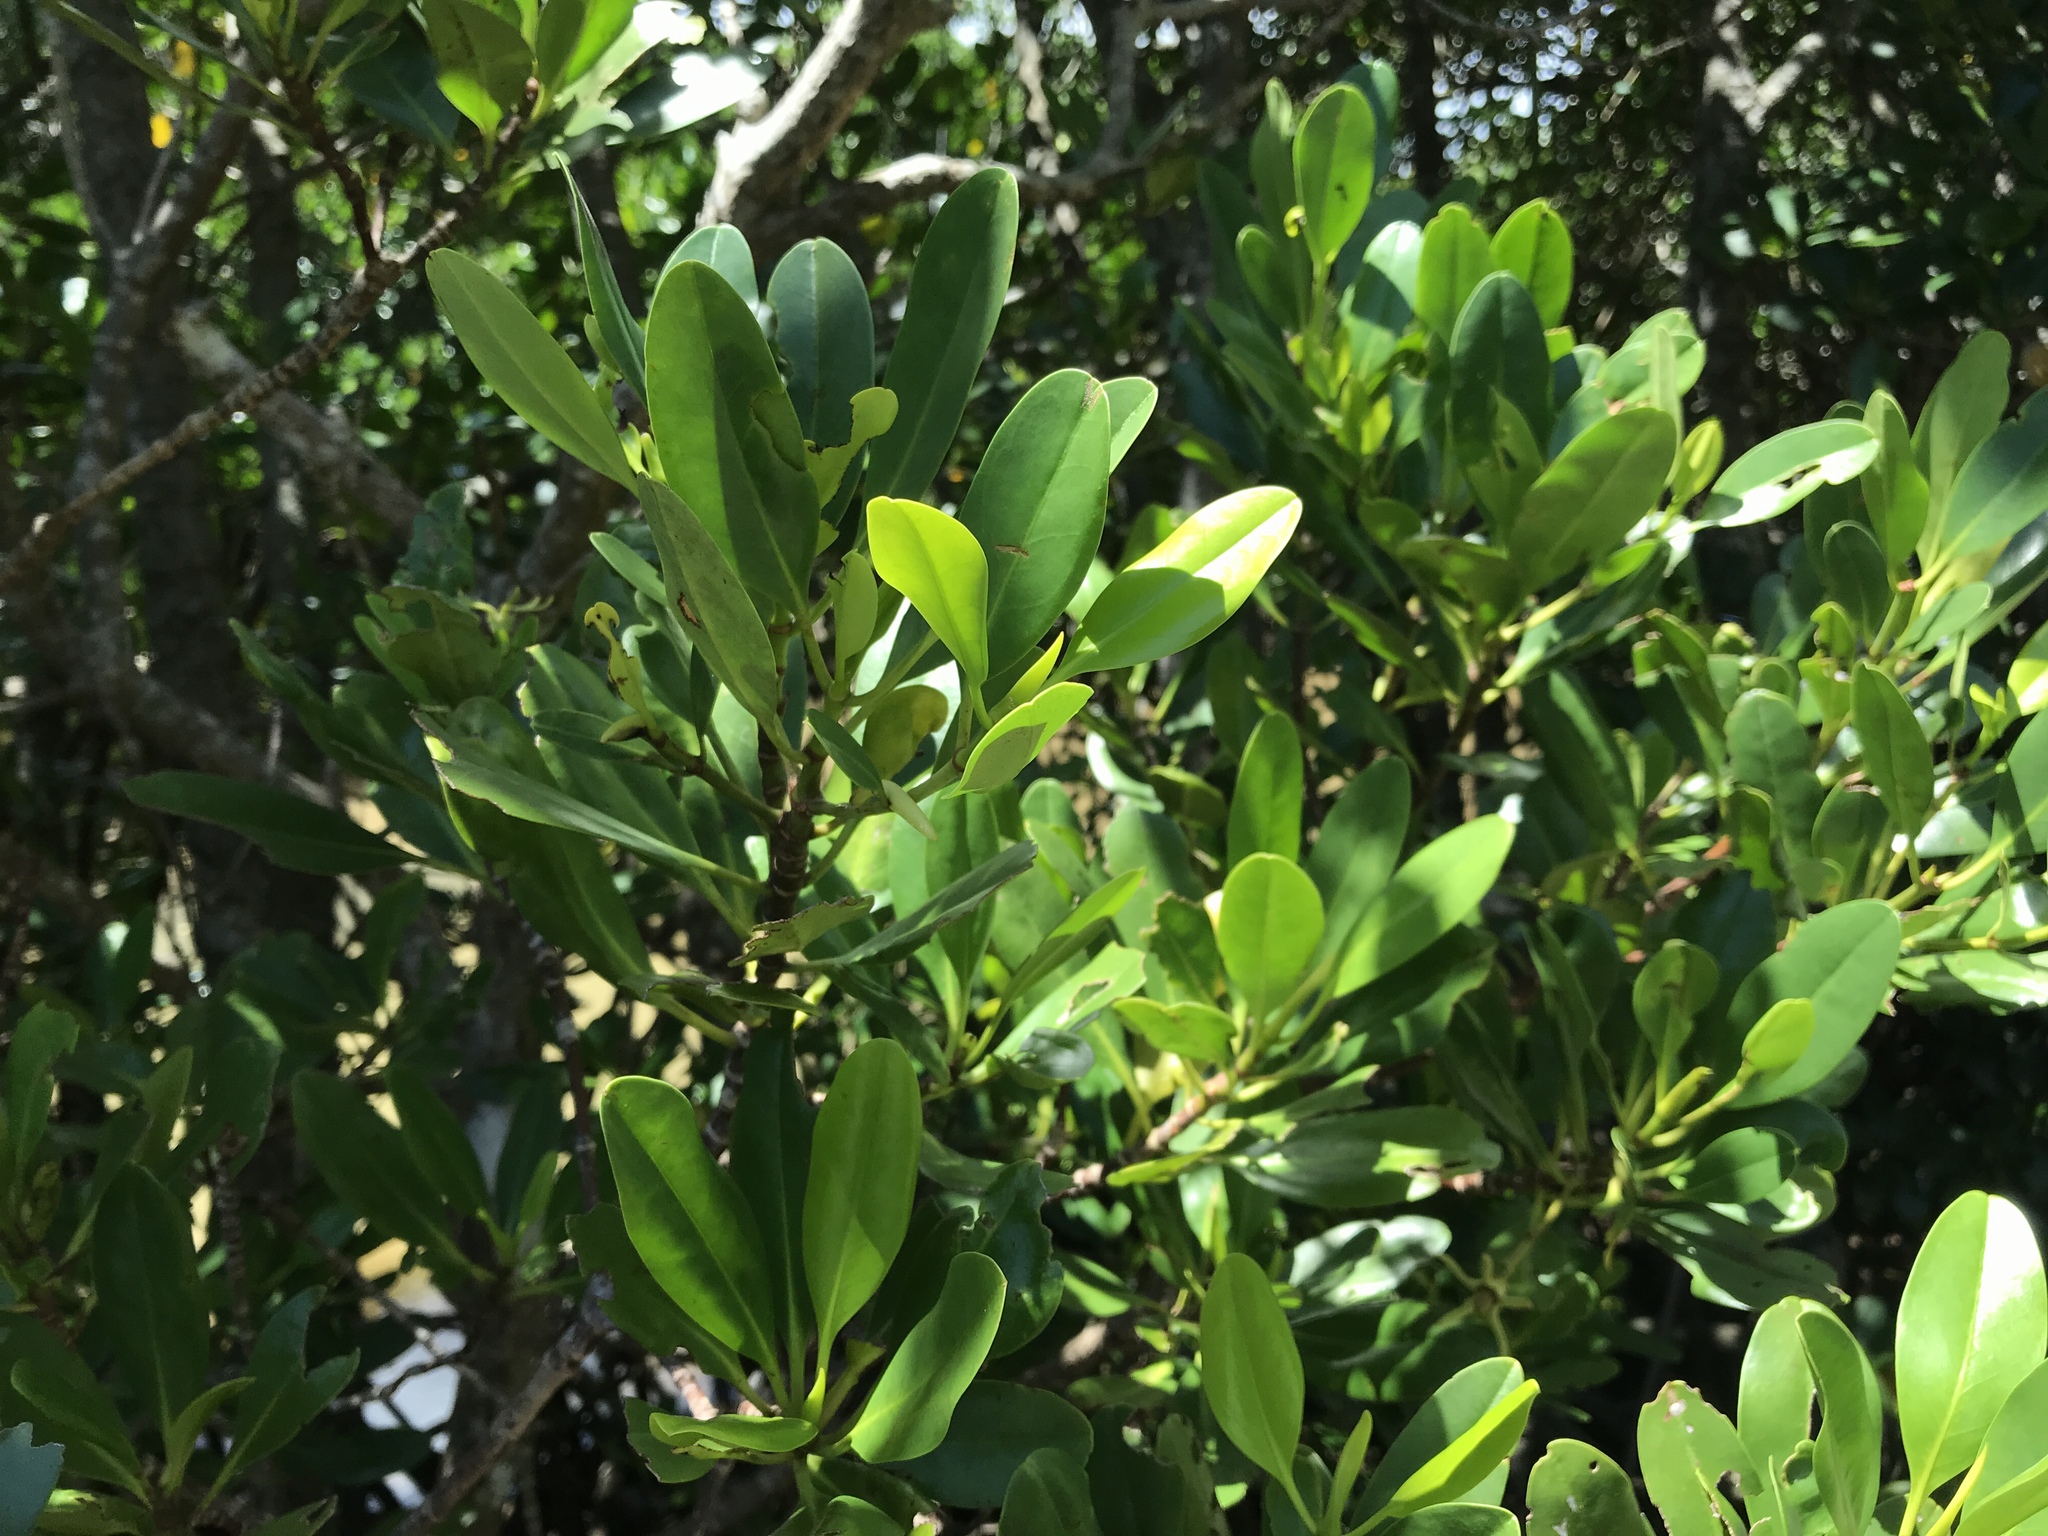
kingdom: Plantae
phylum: Tracheophyta
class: Magnoliopsida
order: Malpighiales
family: Rhizophoraceae
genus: Kandelia
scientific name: Kandelia obovata
